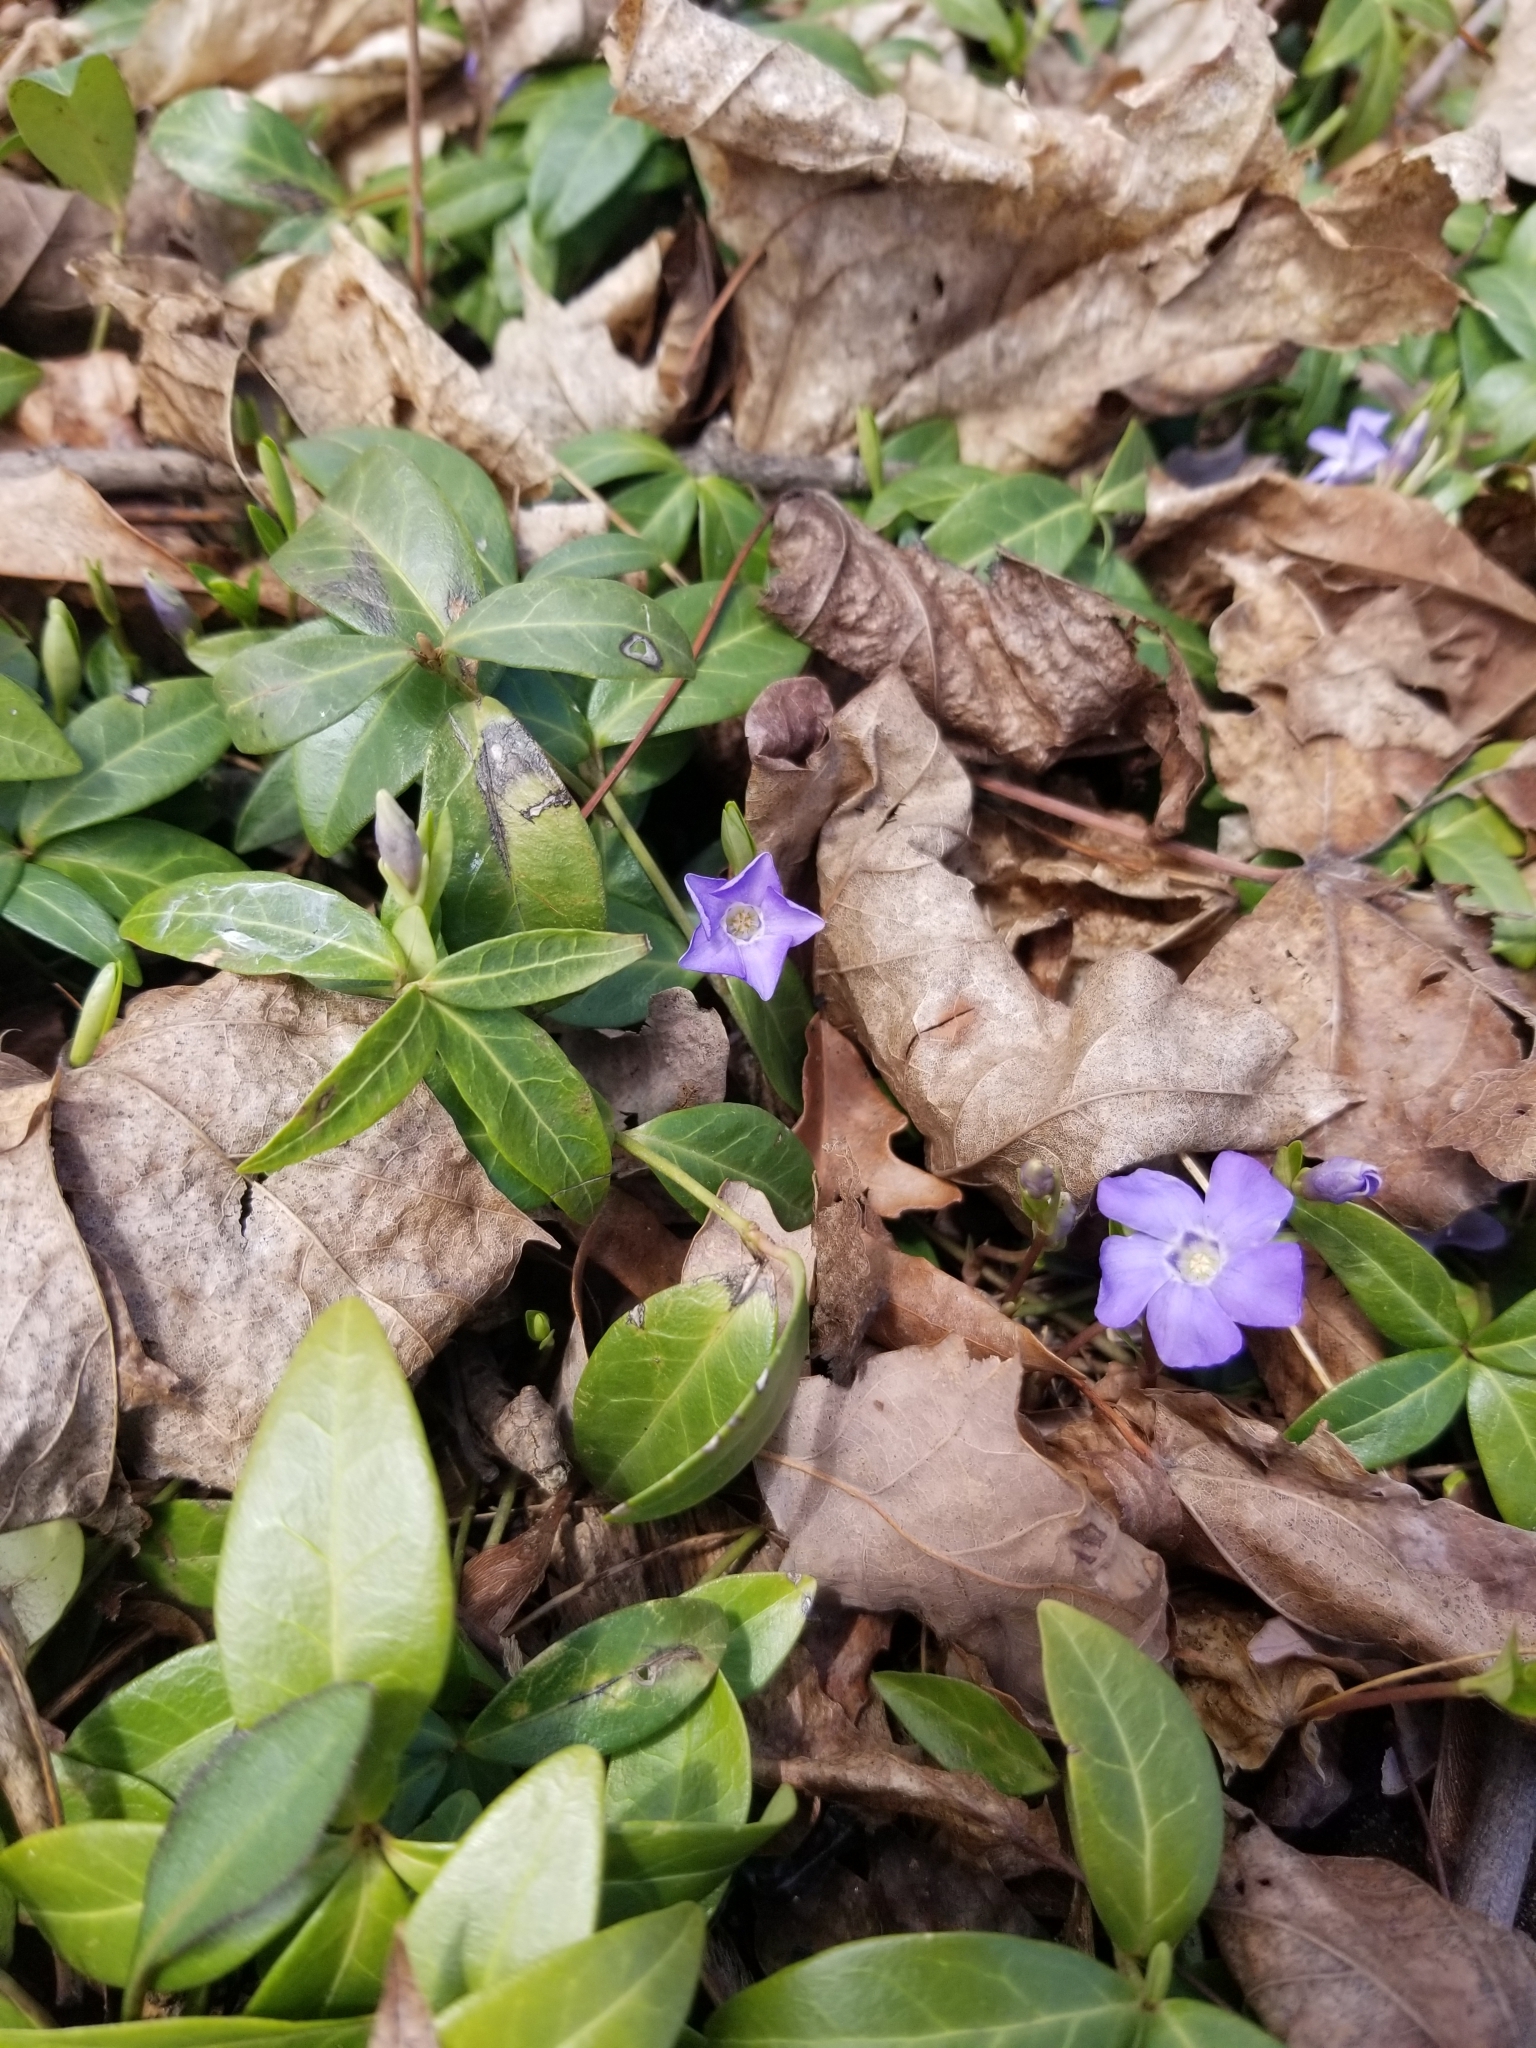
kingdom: Plantae
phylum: Tracheophyta
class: Magnoliopsida
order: Gentianales
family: Apocynaceae
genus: Vinca
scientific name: Vinca minor
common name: Lesser periwinkle
